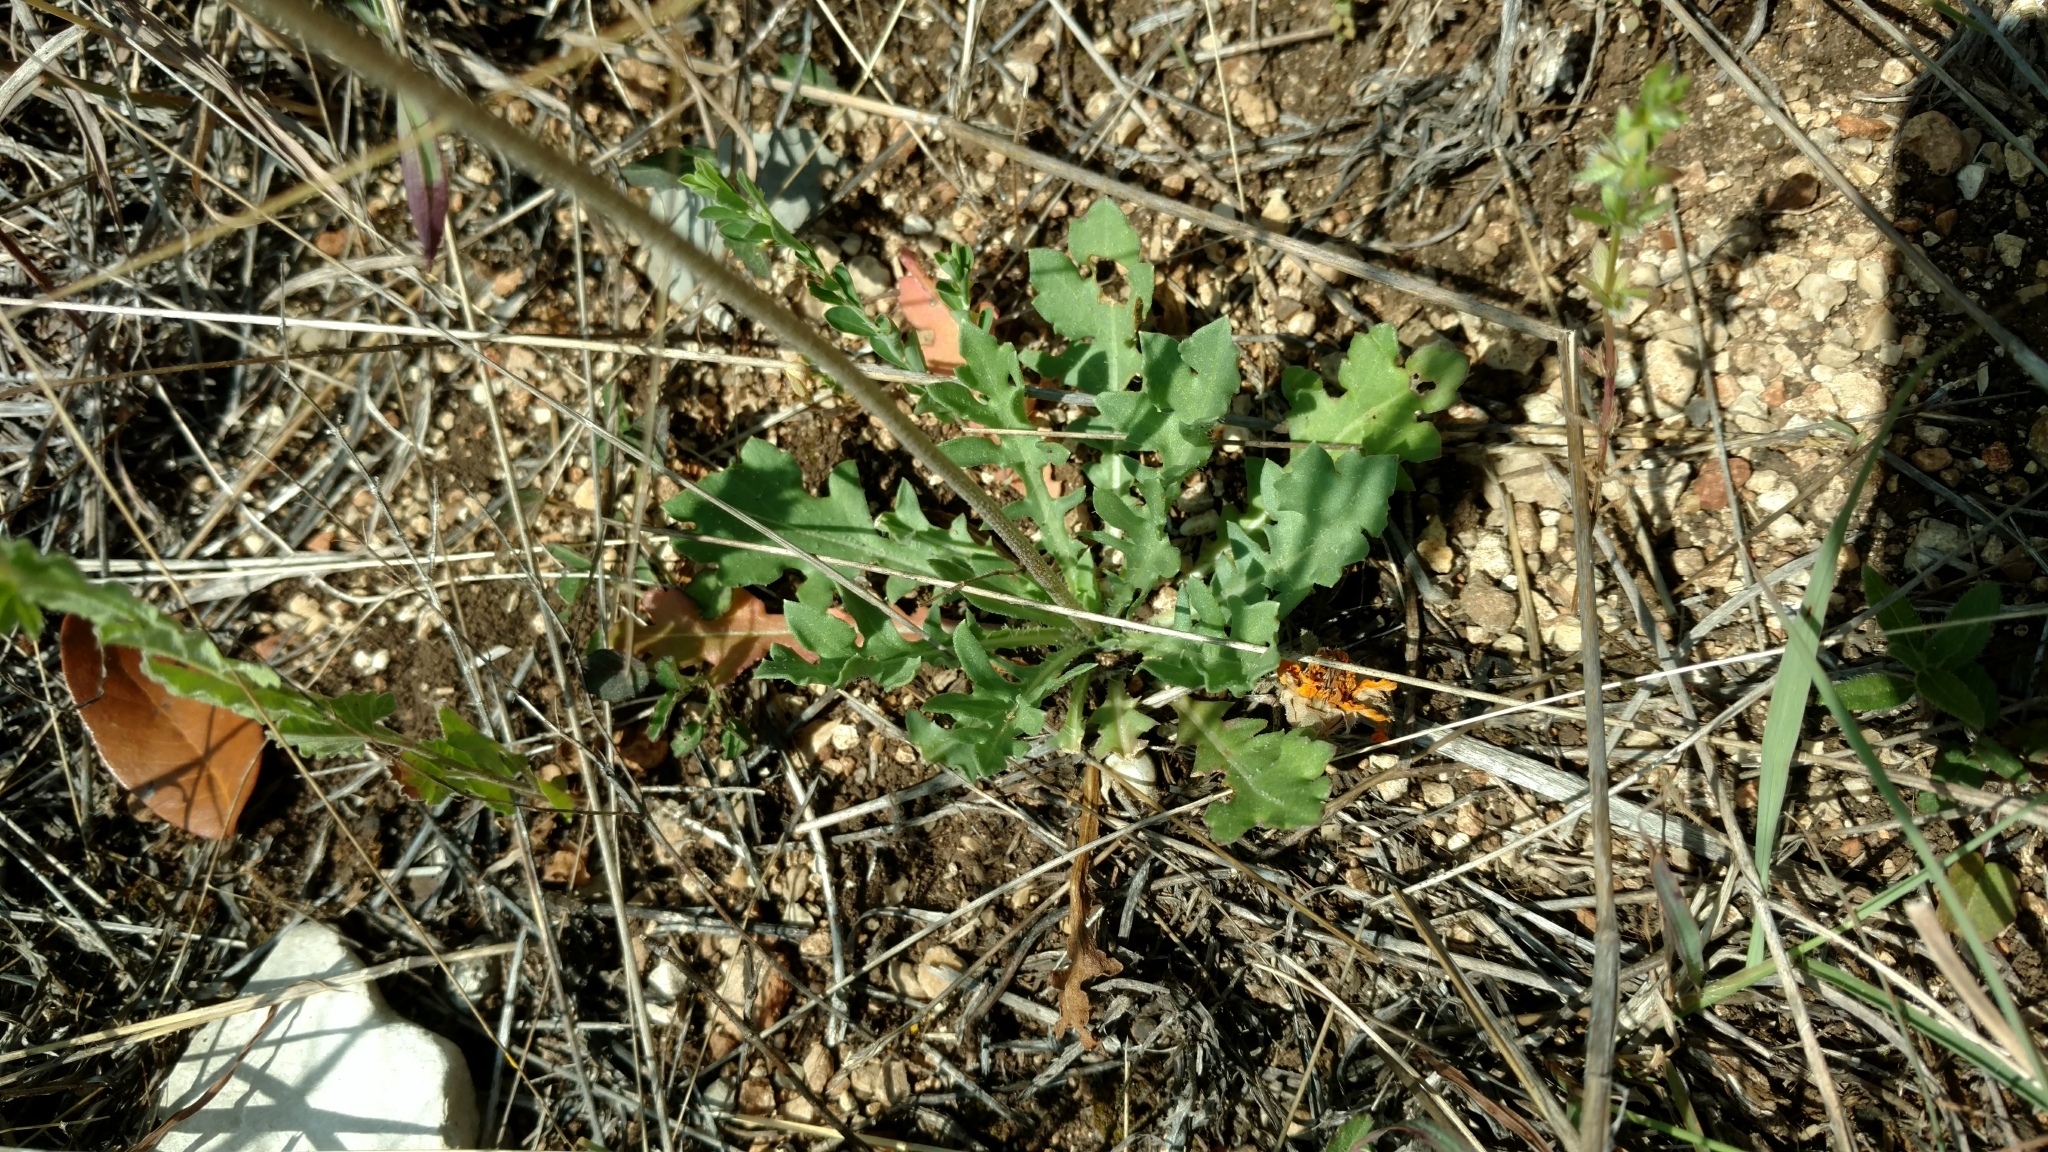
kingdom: Plantae
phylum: Tracheophyta
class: Magnoliopsida
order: Asterales
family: Asteraceae
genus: Gaillardia
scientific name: Gaillardia suavis
